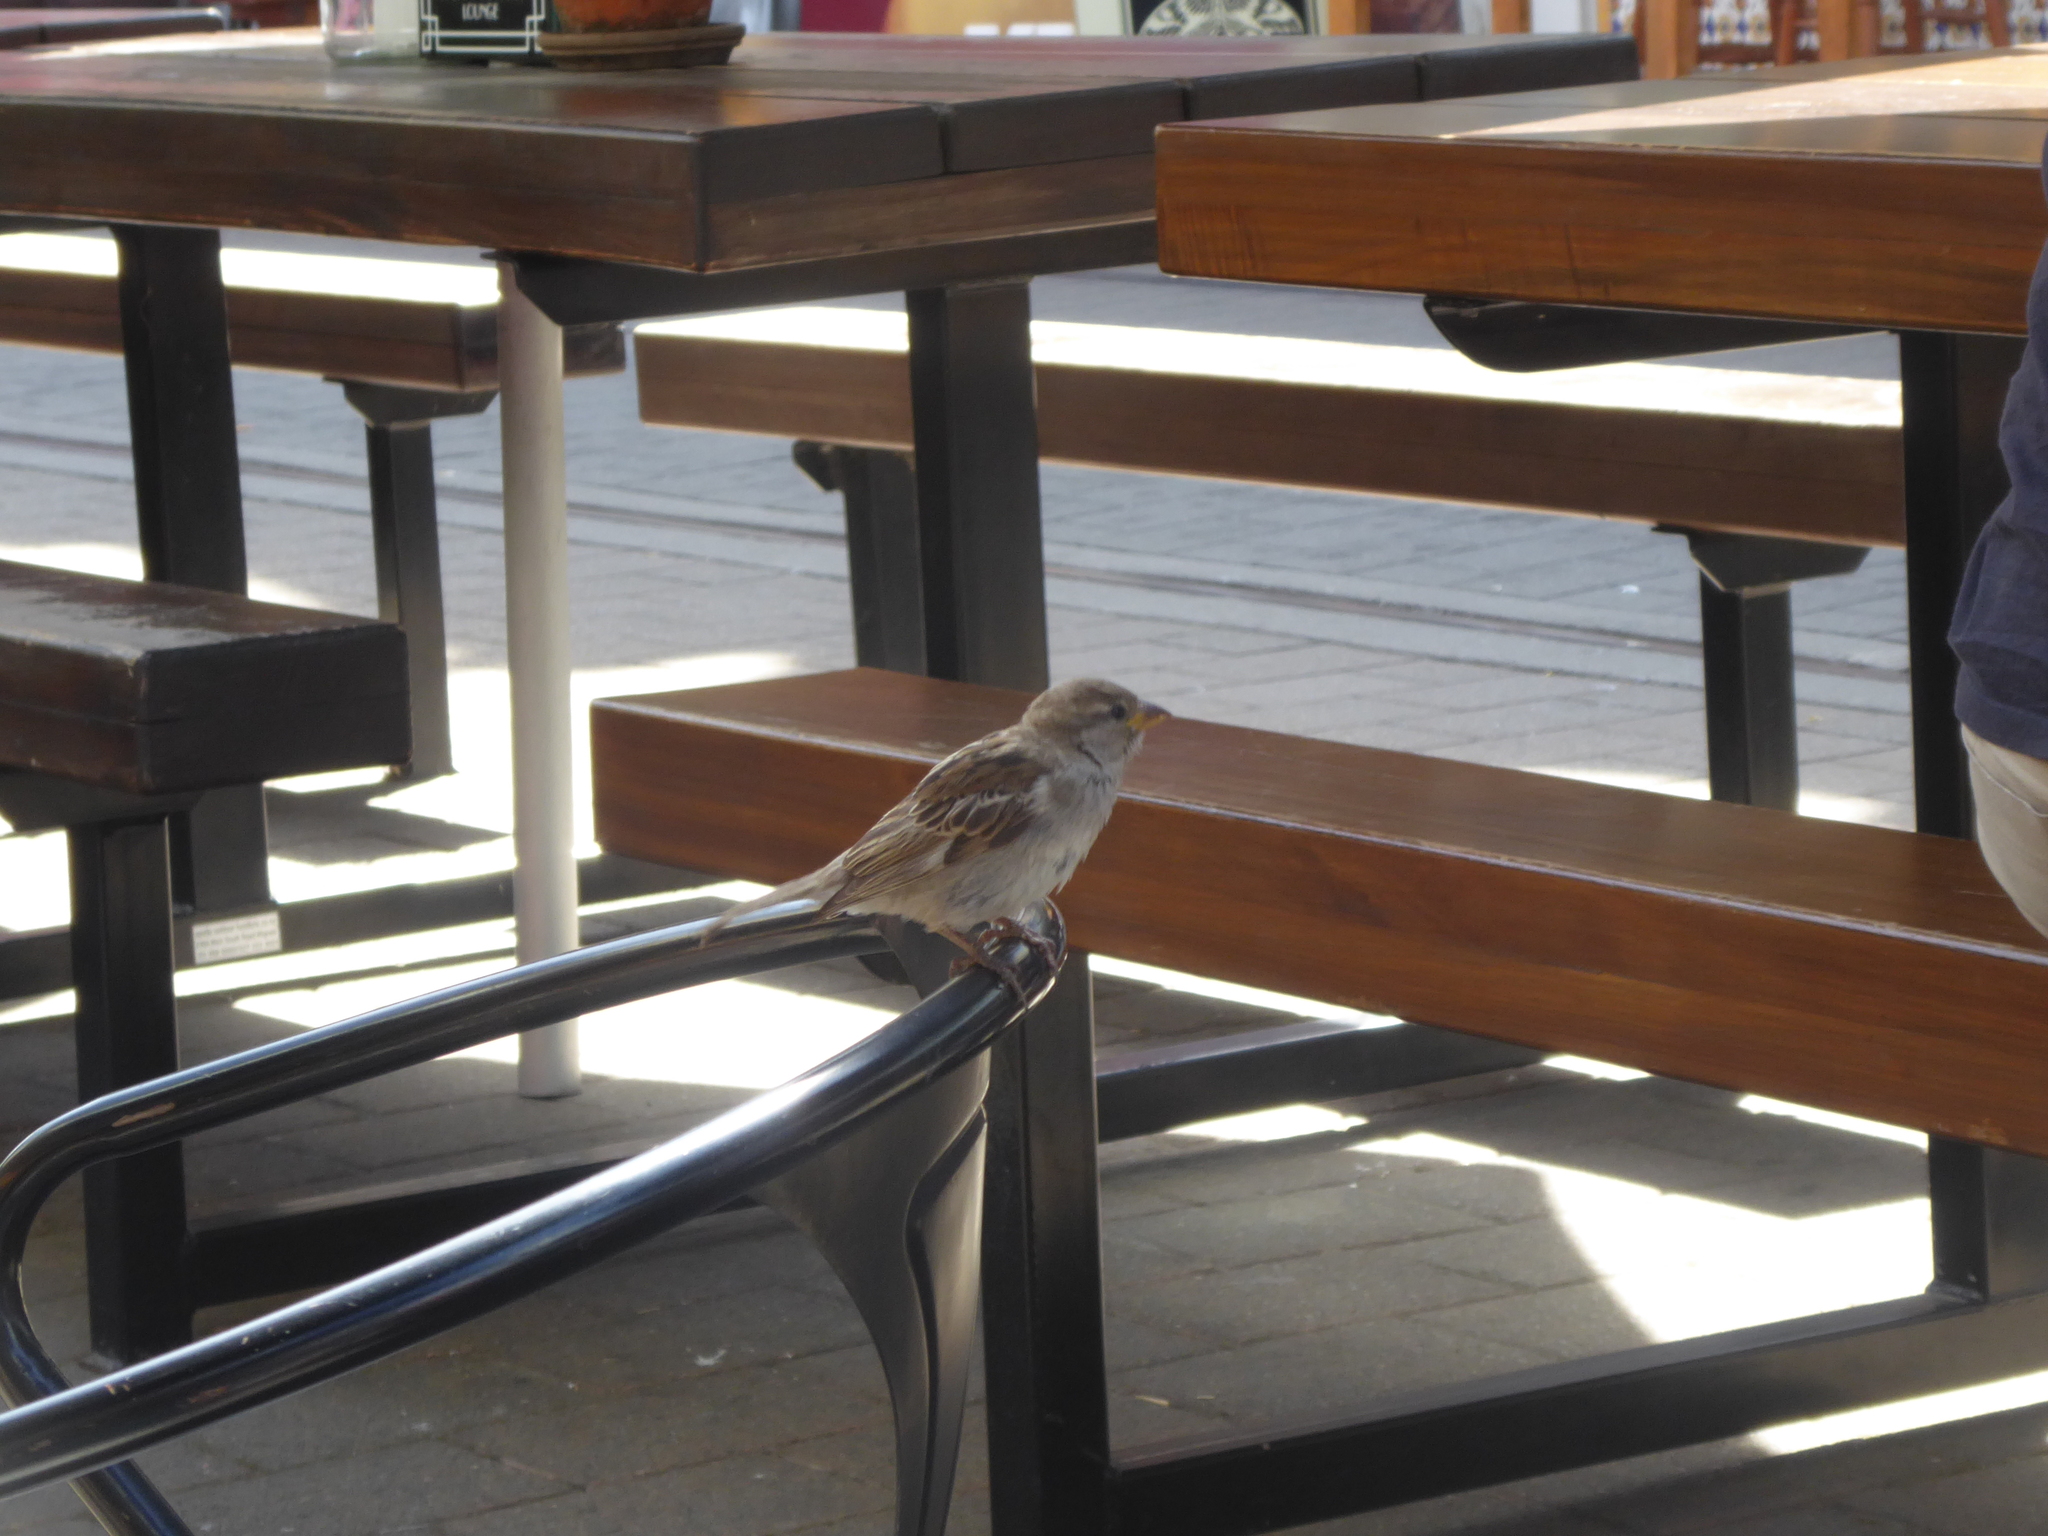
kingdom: Animalia
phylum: Chordata
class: Aves
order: Passeriformes
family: Passeridae
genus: Passer
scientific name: Passer domesticus
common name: House sparrow
